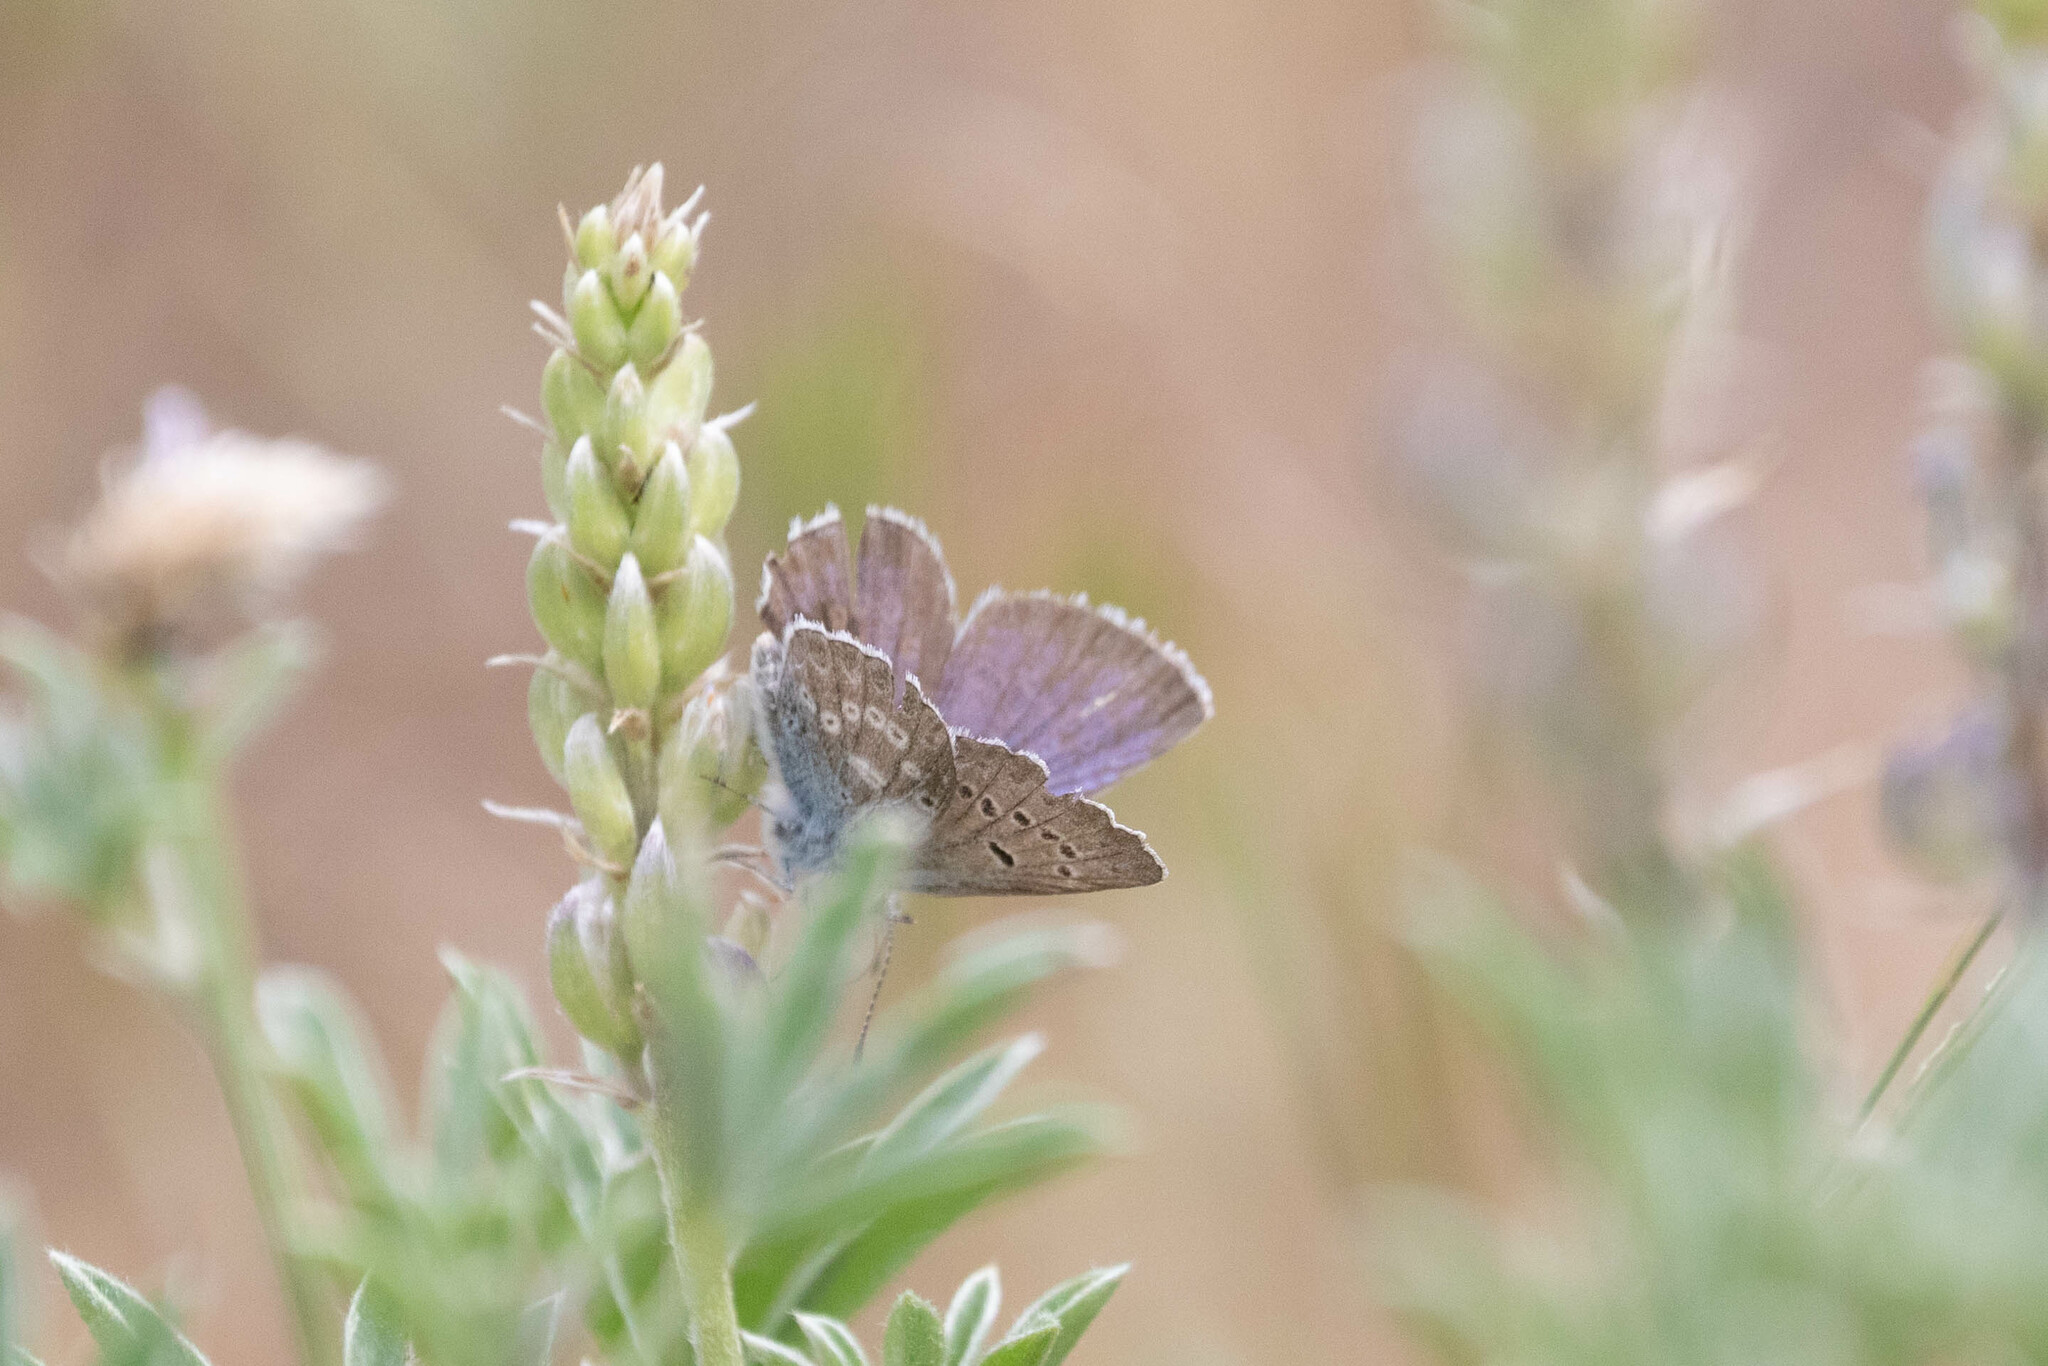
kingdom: Animalia
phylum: Arthropoda
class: Insecta
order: Lepidoptera
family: Lycaenidae
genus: Icaricia
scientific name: Icaricia icarioides
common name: Boisduval's blue
